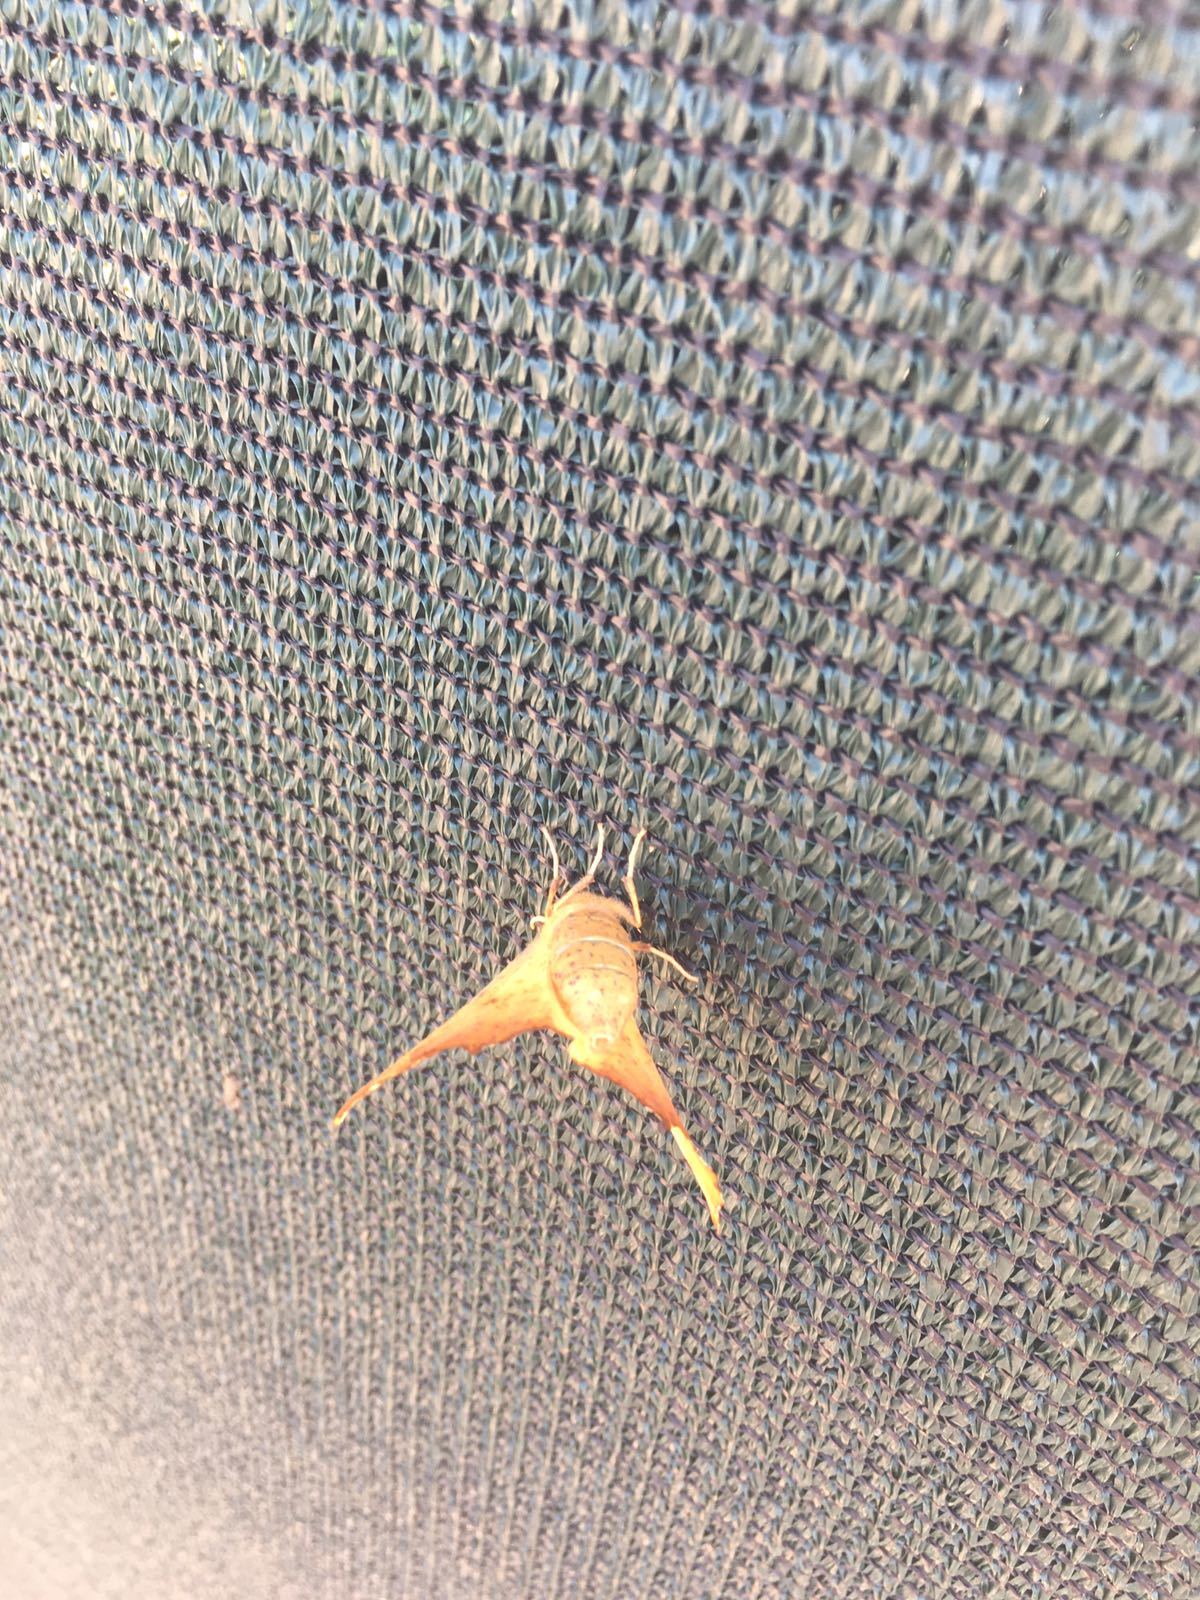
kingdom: Animalia
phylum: Arthropoda
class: Insecta
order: Lepidoptera
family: Geometridae
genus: Ennomos
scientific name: Ennomos magnaria
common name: Maple spanworm
